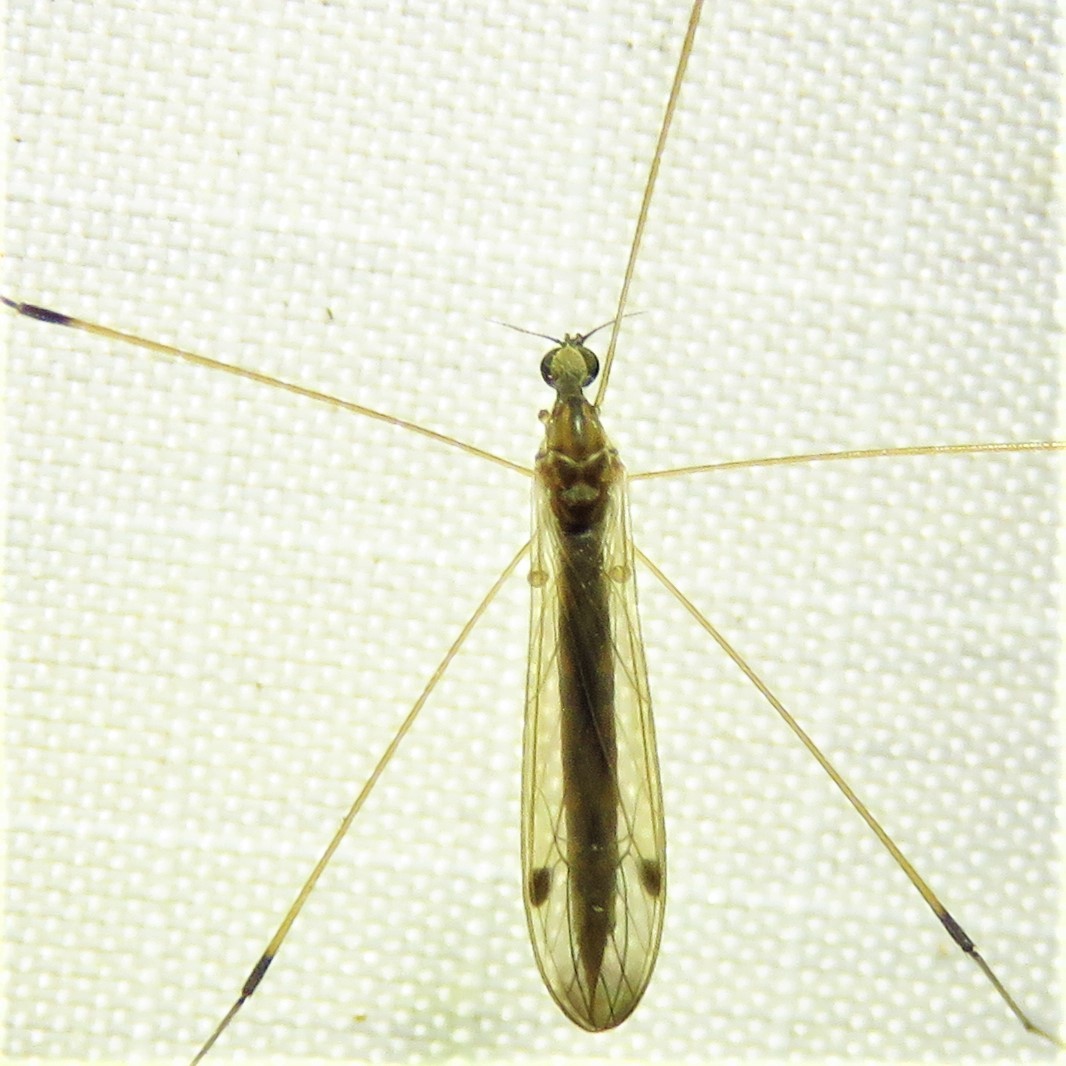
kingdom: Animalia
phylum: Arthropoda
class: Insecta
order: Diptera
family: Limoniidae
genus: Helius
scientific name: Helius flavipes
